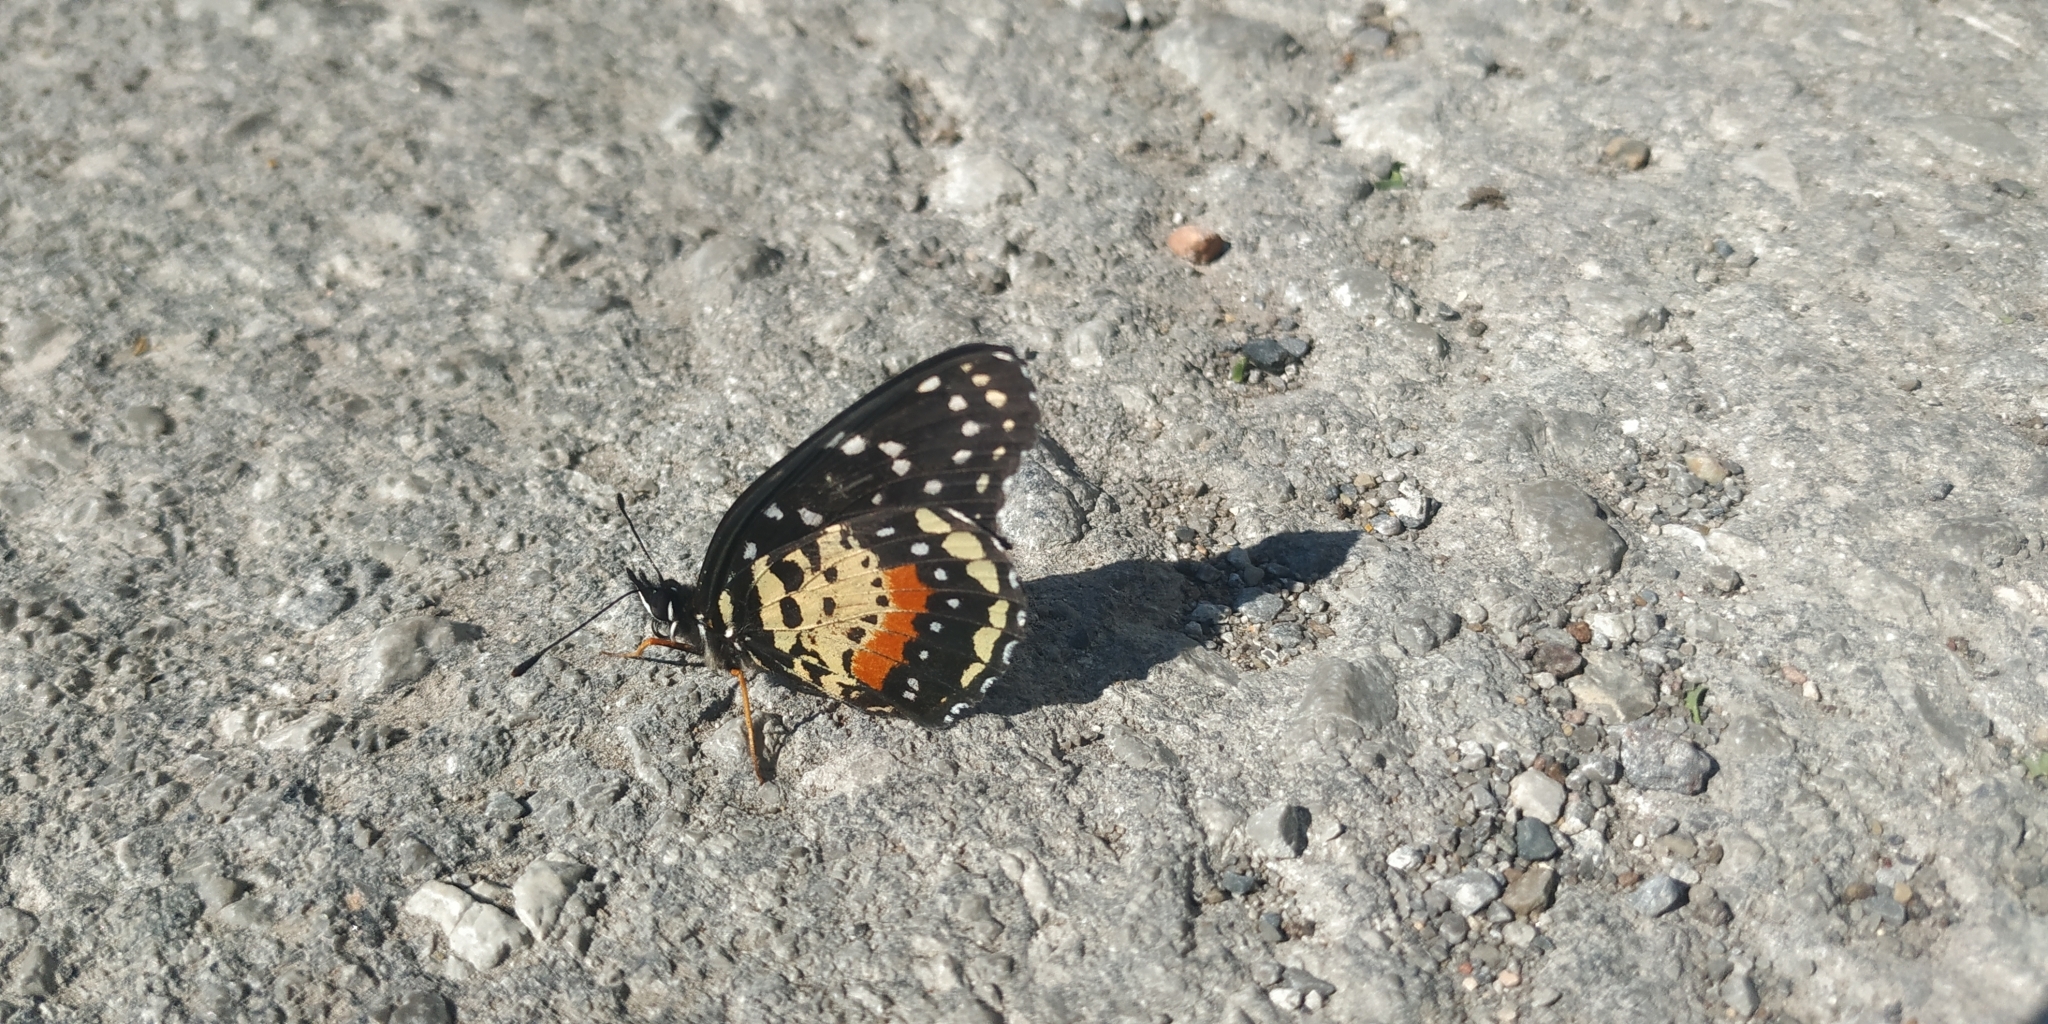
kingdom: Animalia
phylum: Arthropoda
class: Insecta
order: Lepidoptera
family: Nymphalidae
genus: Chlosyne
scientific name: Chlosyne janais
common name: Crimson patch
